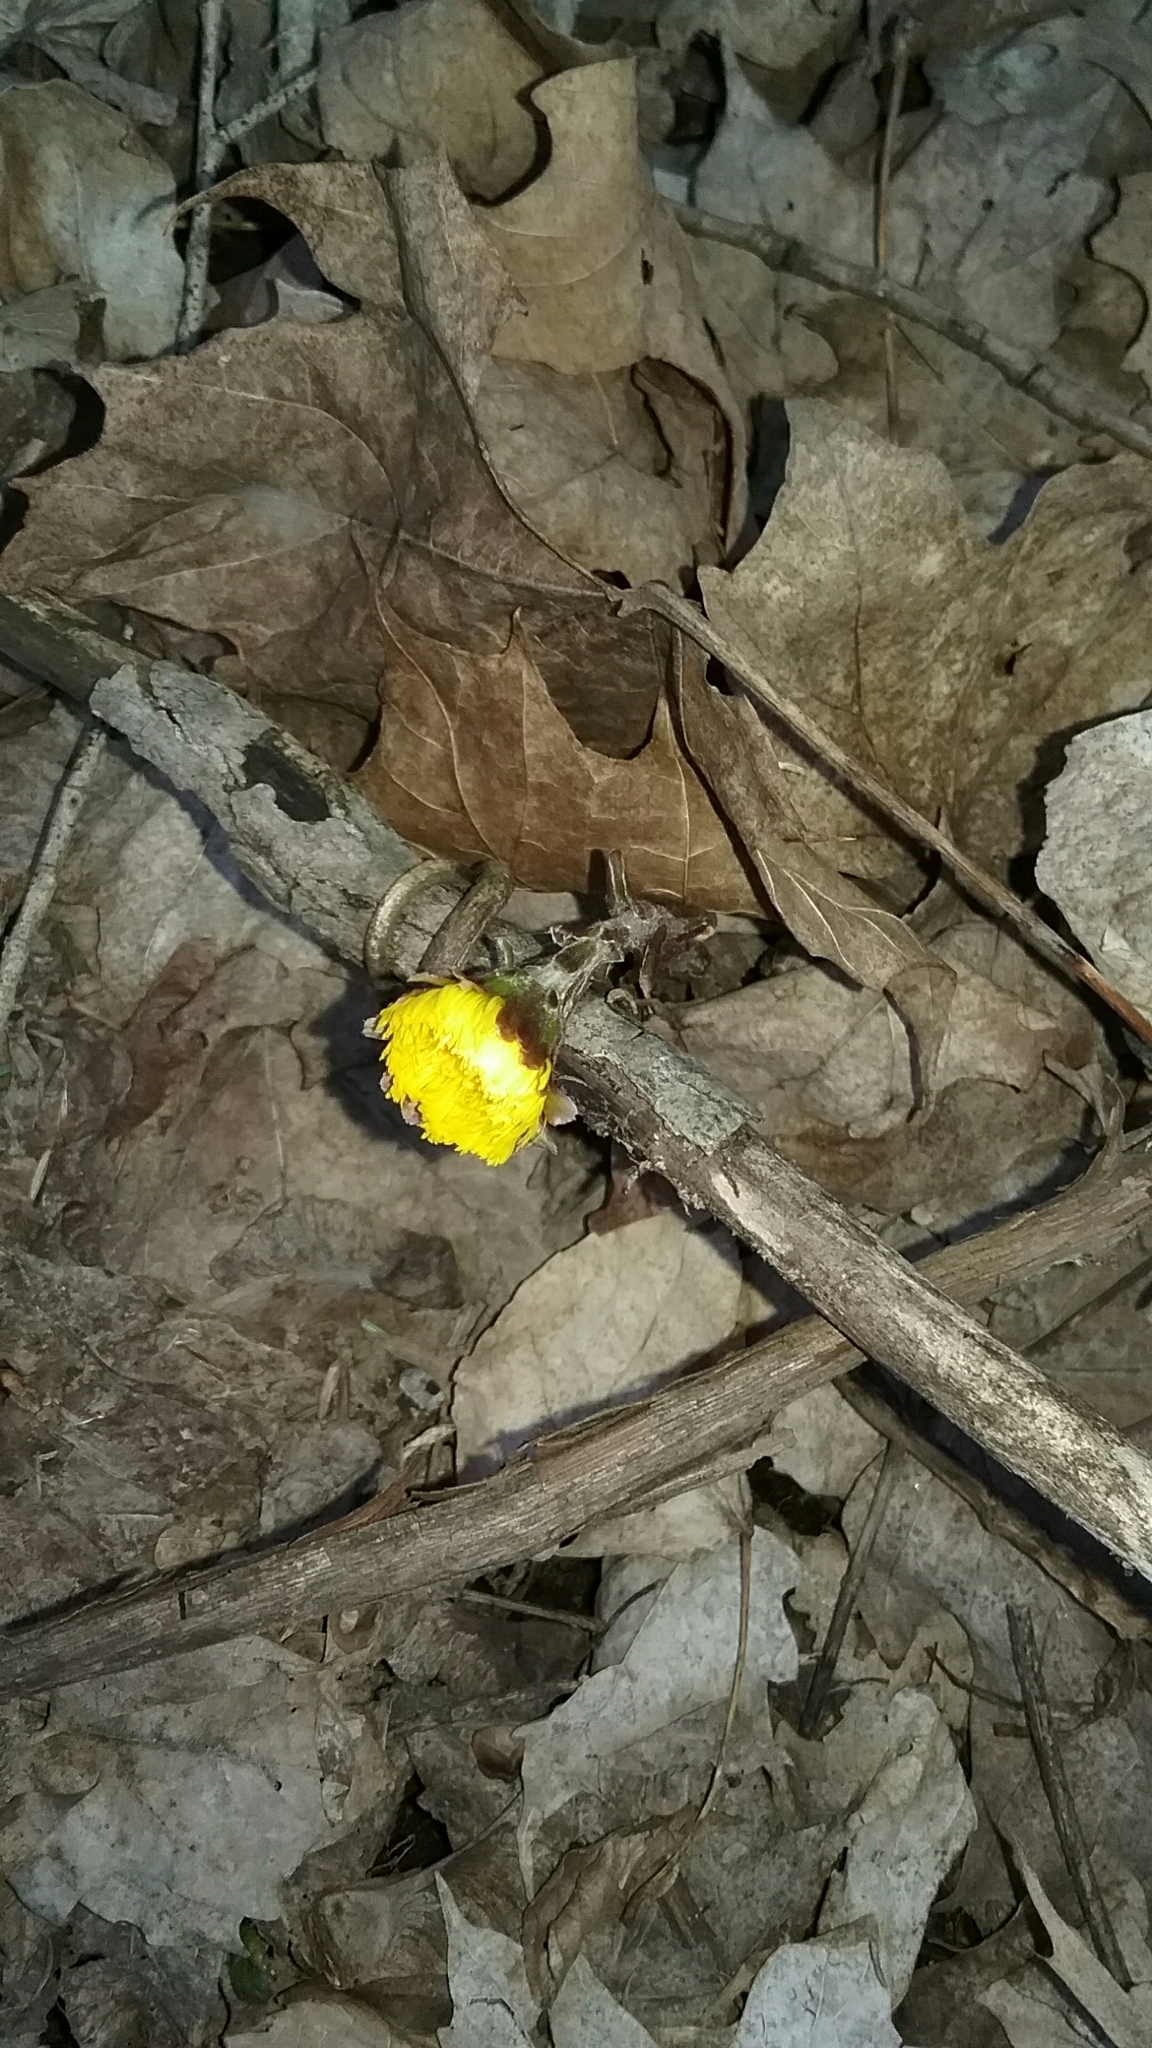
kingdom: Plantae
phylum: Tracheophyta
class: Magnoliopsida
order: Asterales
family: Asteraceae
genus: Tussilago
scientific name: Tussilago farfara
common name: Coltsfoot
